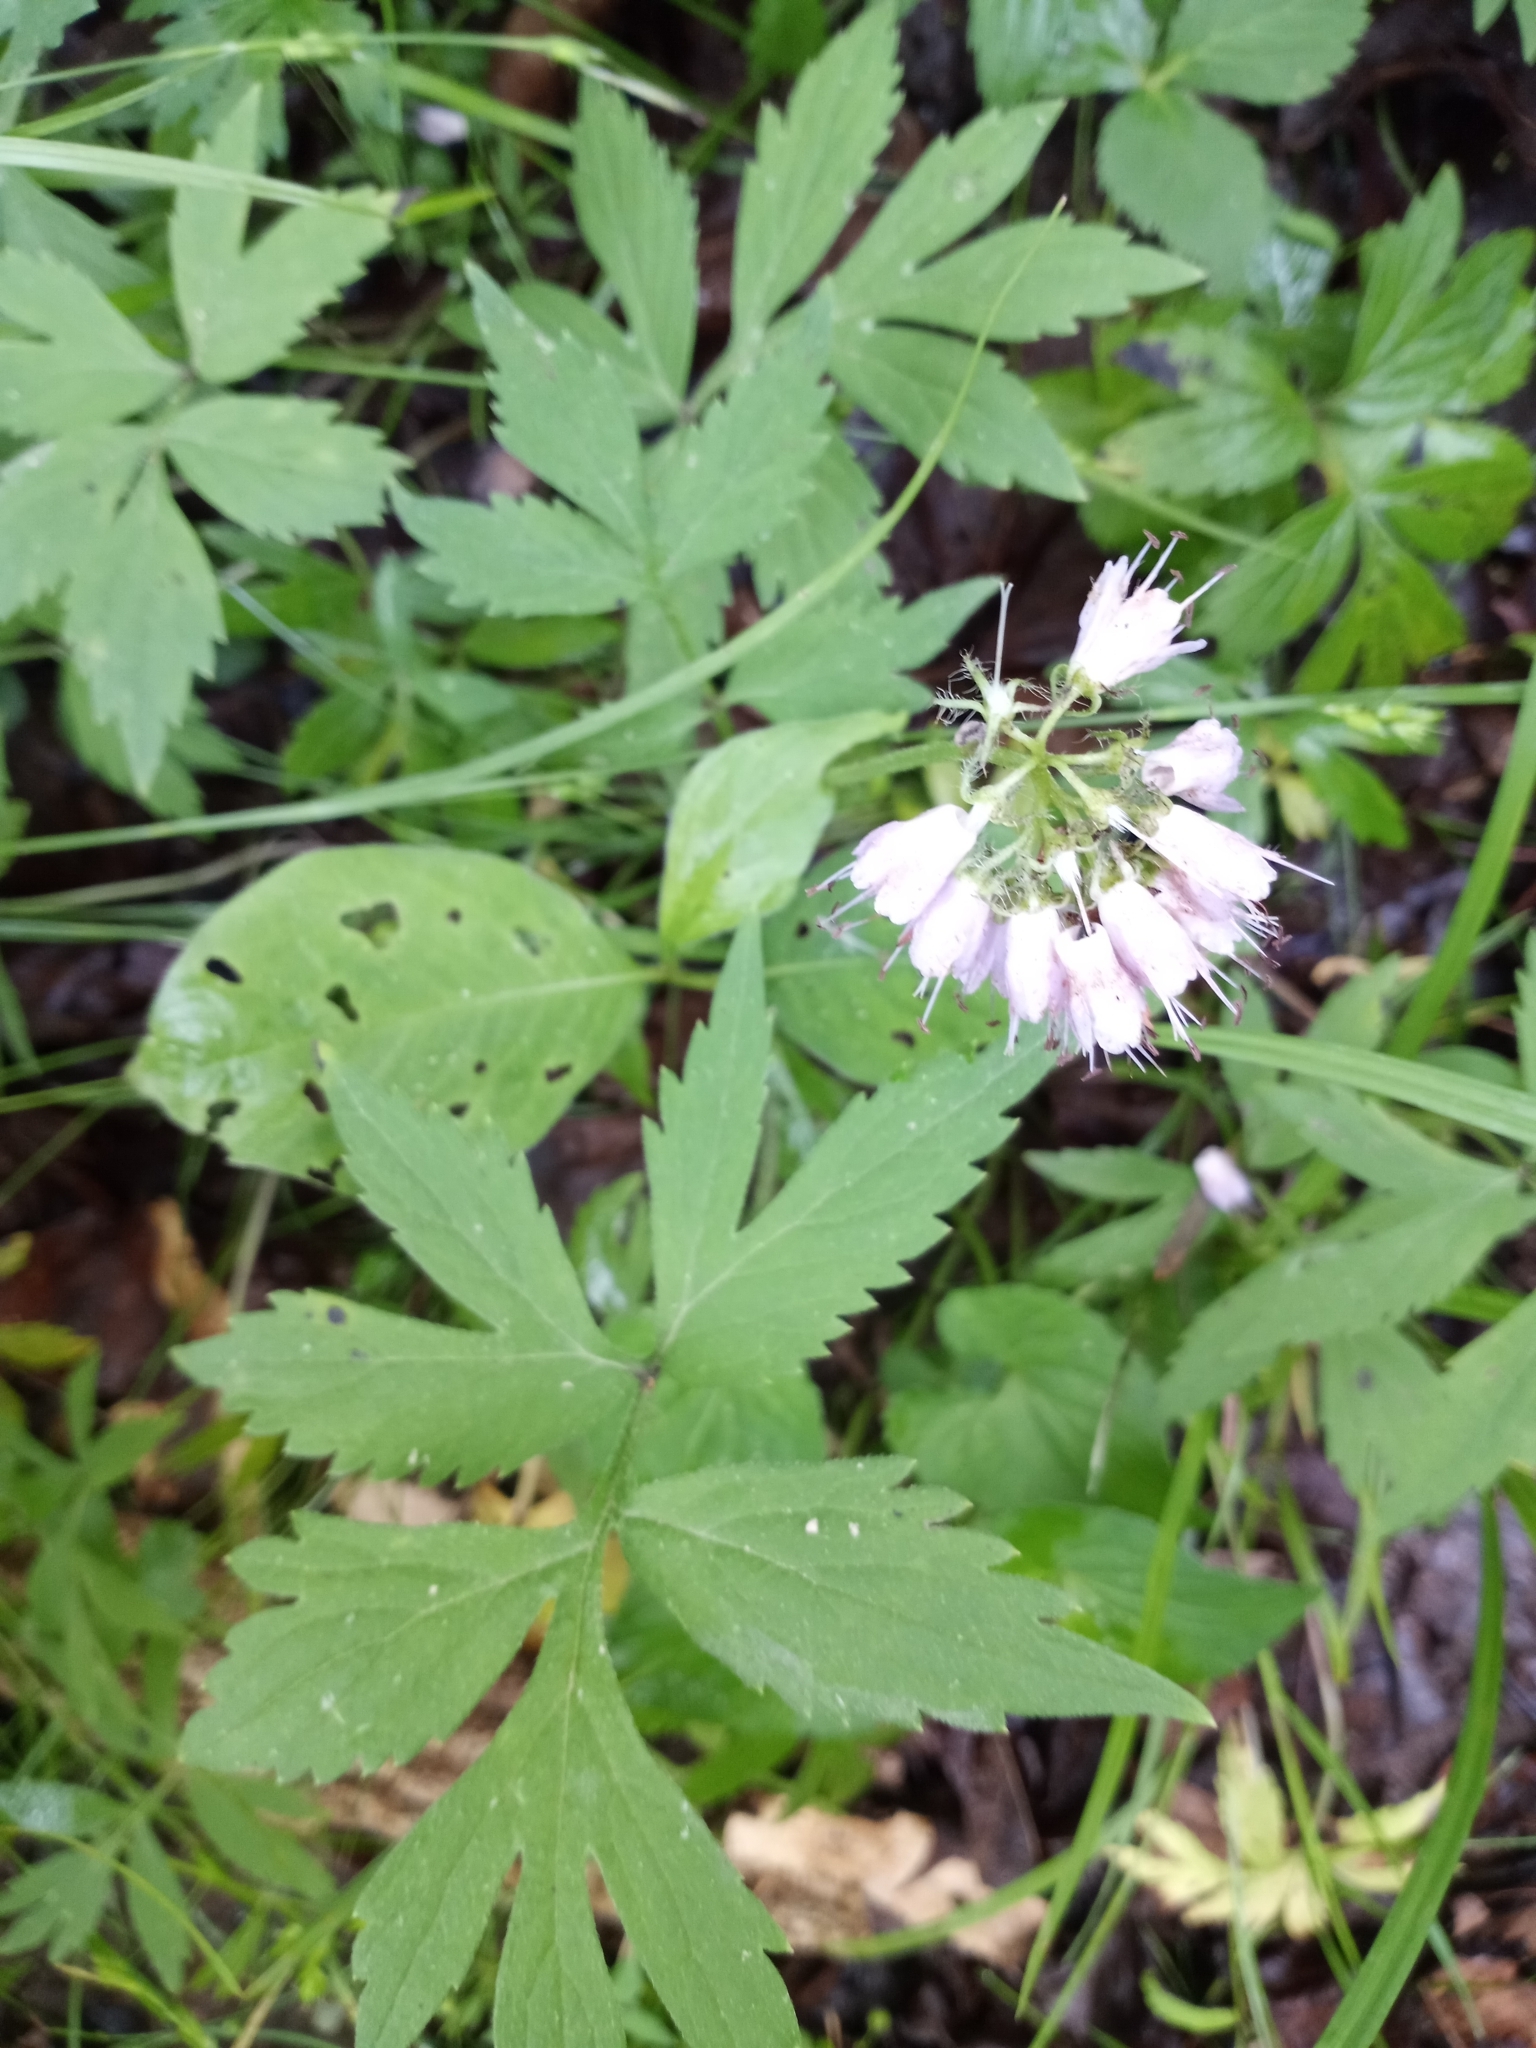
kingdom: Plantae
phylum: Tracheophyta
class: Magnoliopsida
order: Boraginales
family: Hydrophyllaceae
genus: Hydrophyllum
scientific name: Hydrophyllum virginianum
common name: Virginia waterleaf
